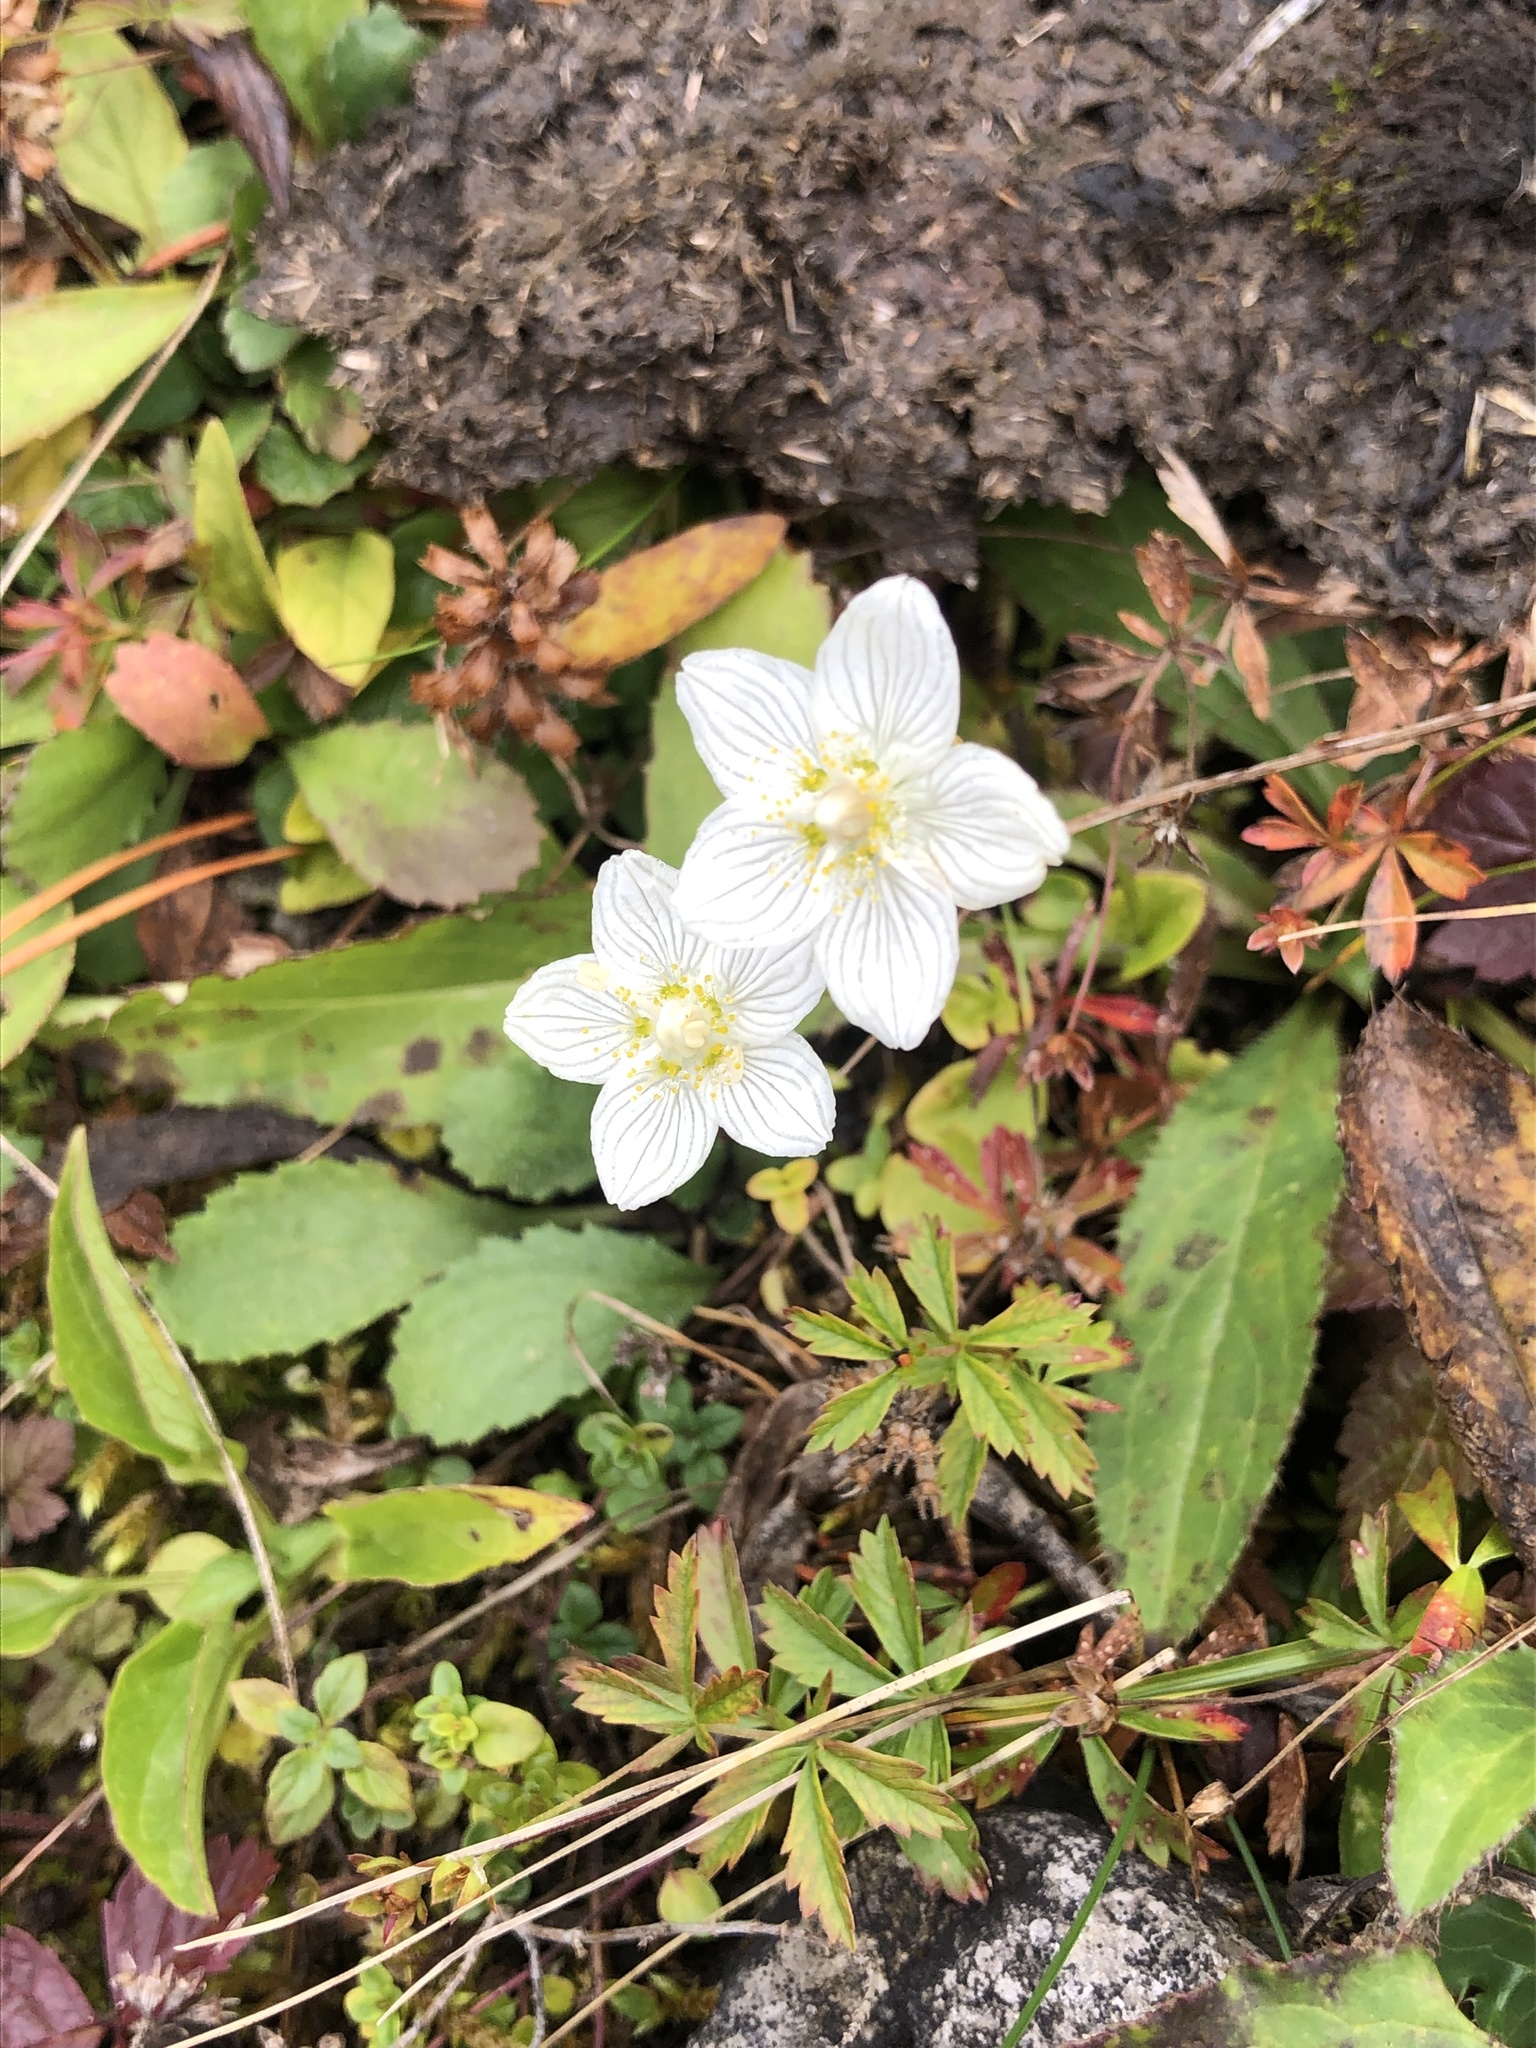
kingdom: Plantae
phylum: Tracheophyta
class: Magnoliopsida
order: Celastrales
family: Parnassiaceae
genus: Parnassia
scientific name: Parnassia palustris
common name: Grass-of-parnassus
